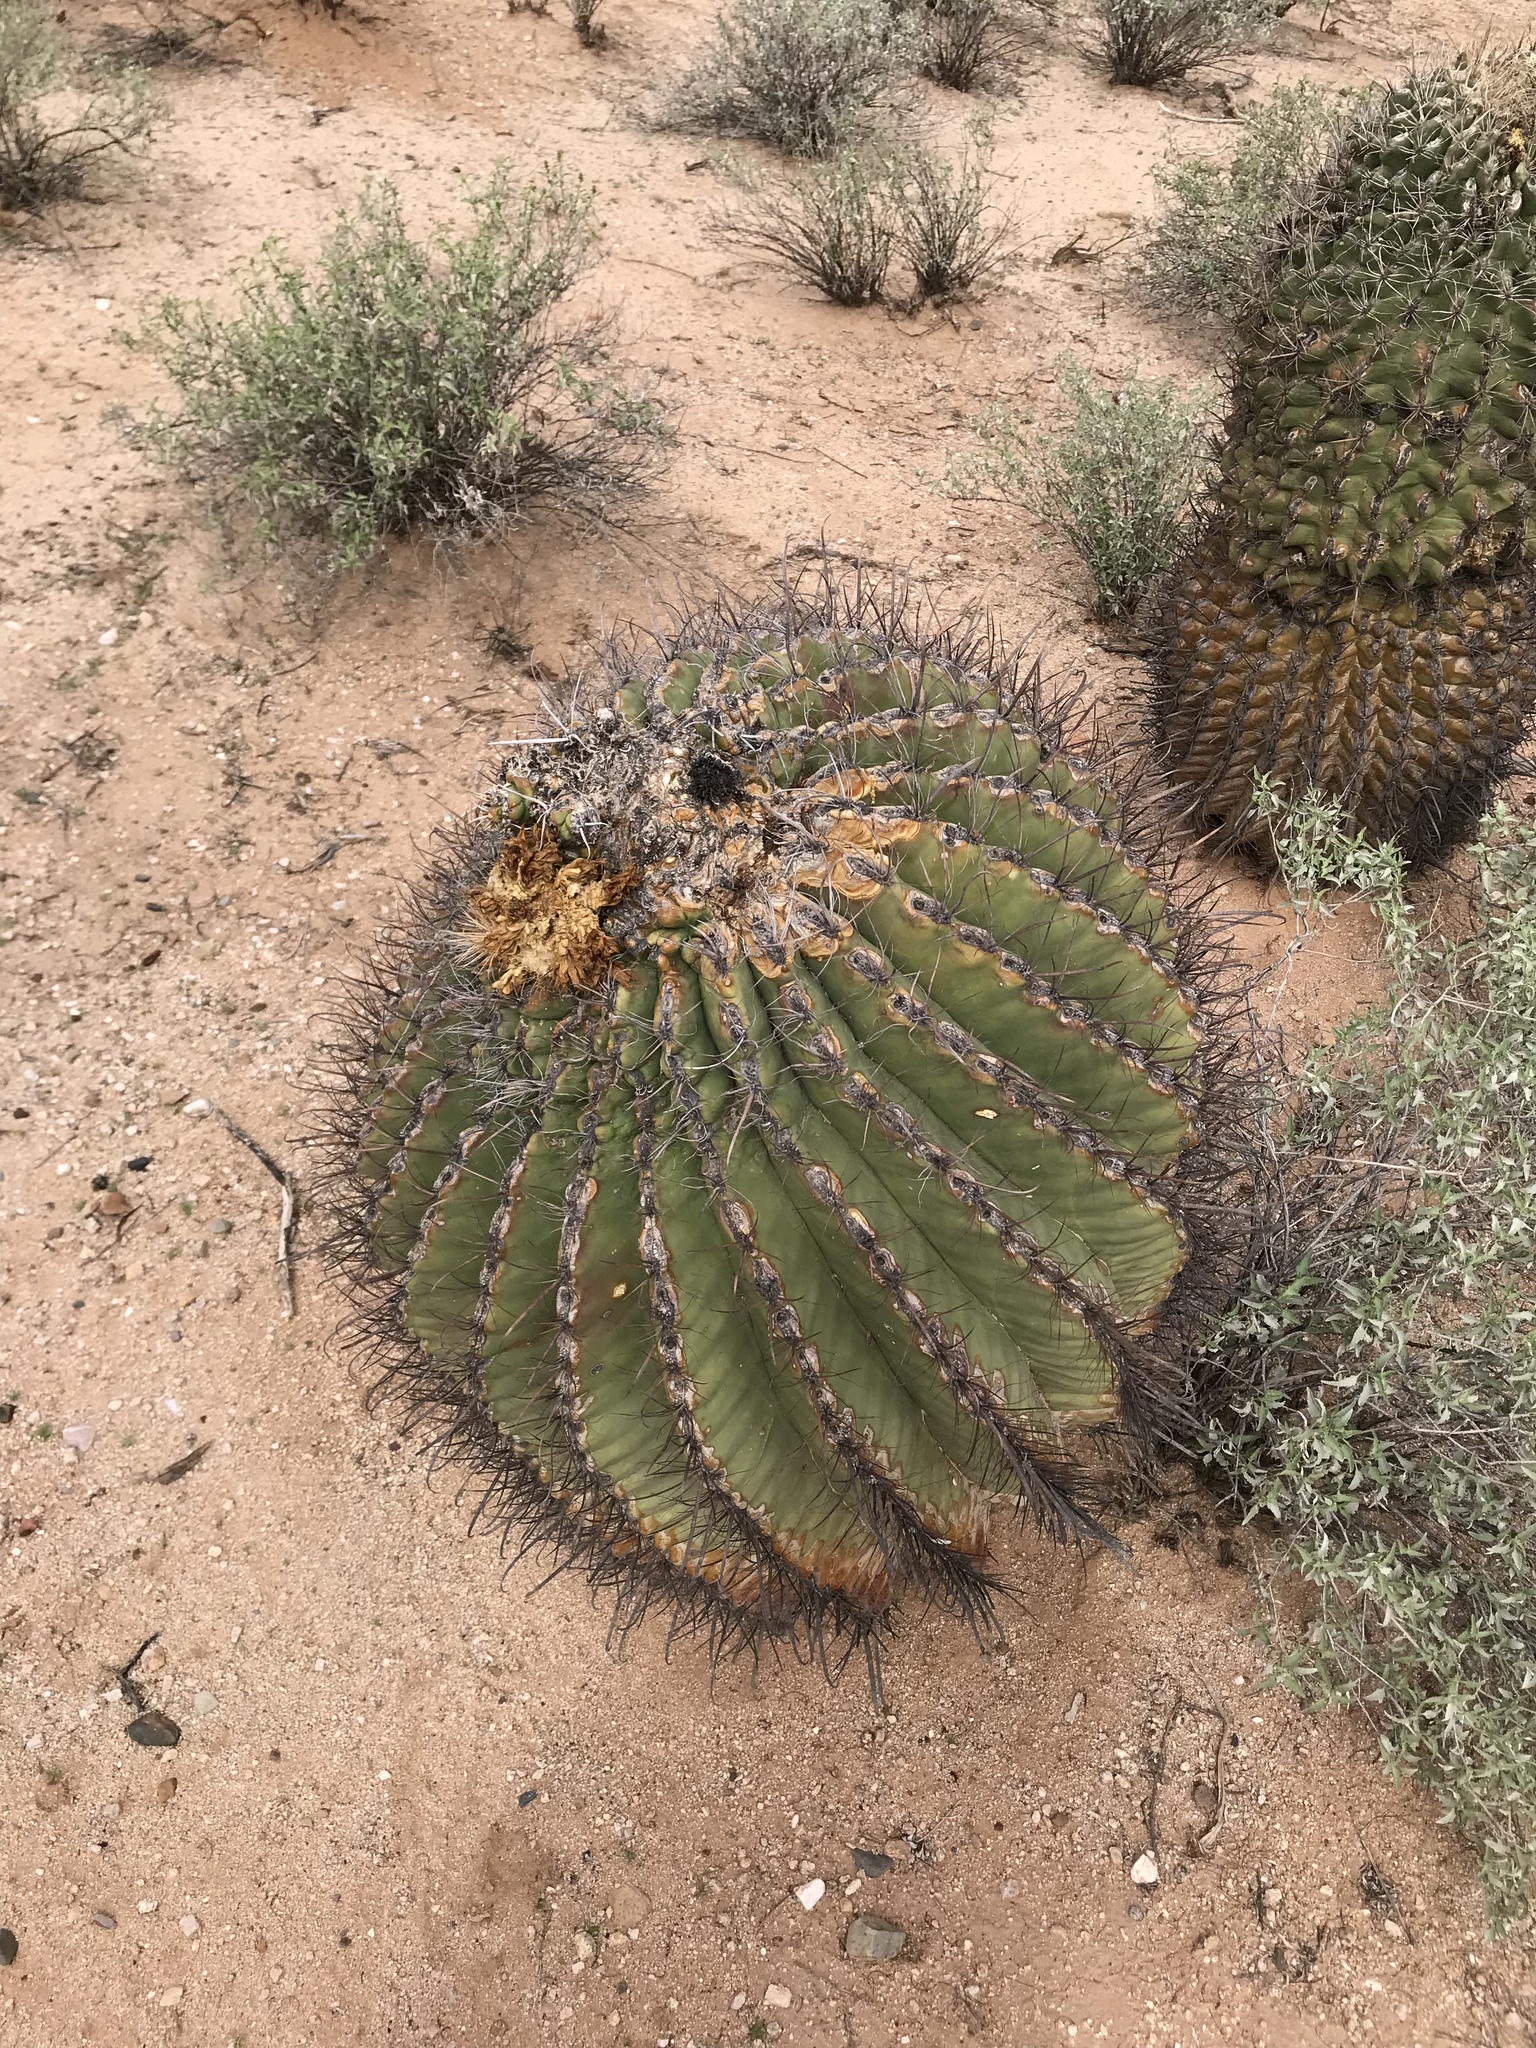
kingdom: Plantae
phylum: Tracheophyta
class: Magnoliopsida
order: Caryophyllales
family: Cactaceae
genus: Ferocactus
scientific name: Ferocactus wislizeni
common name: Candy barrel cactus
